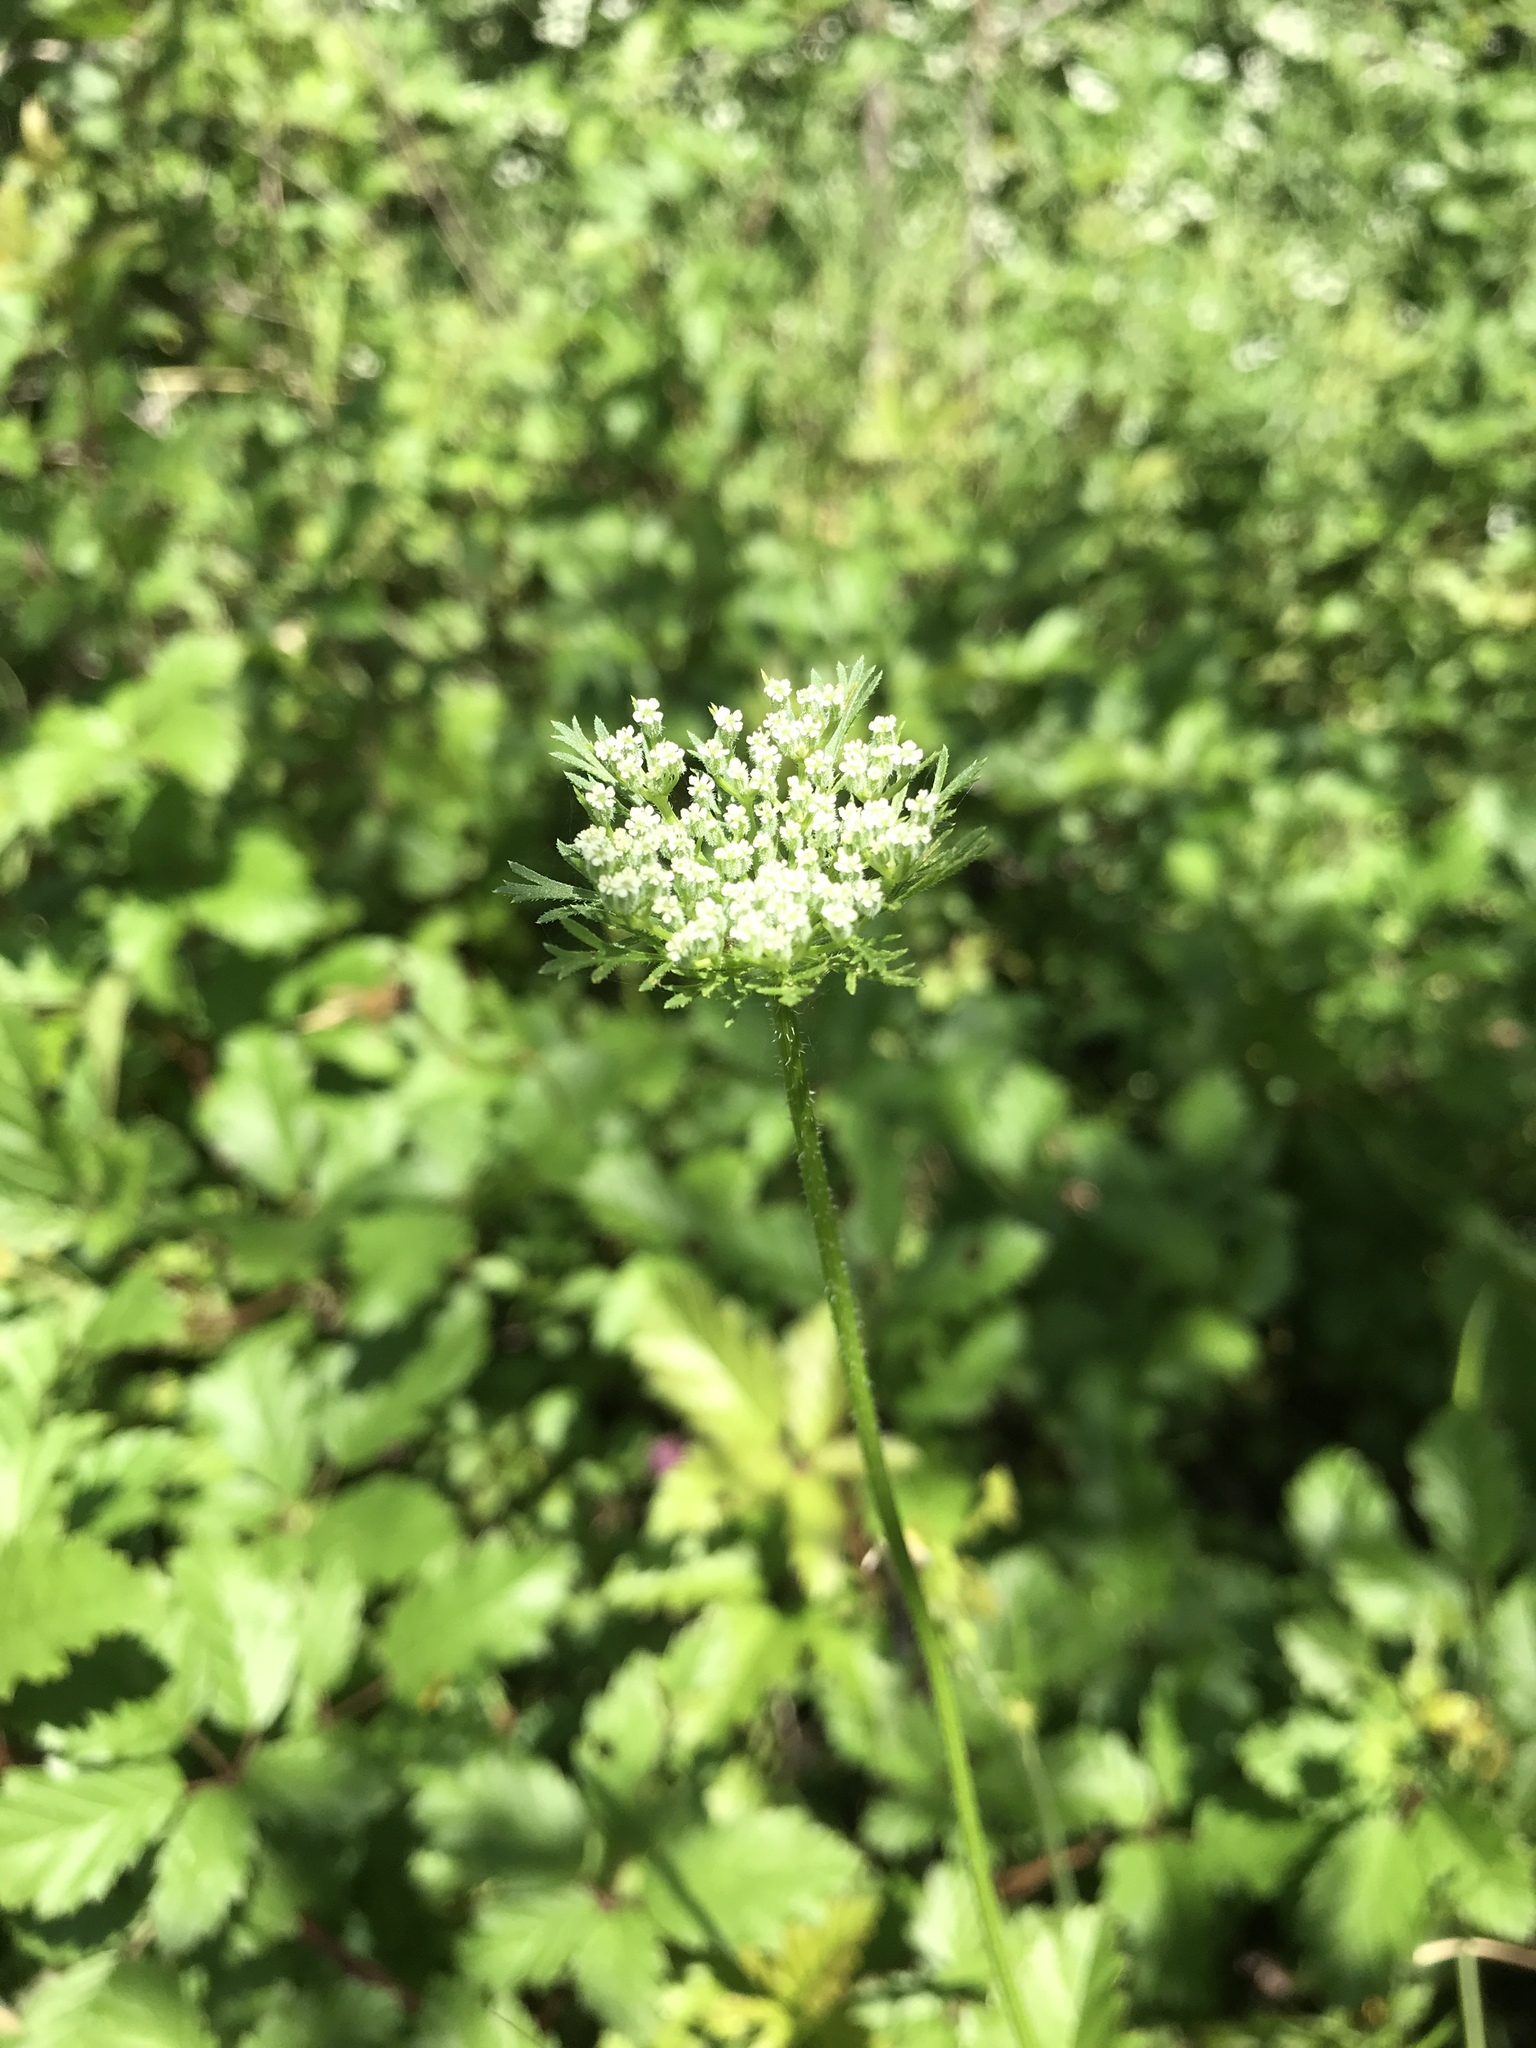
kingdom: Plantae
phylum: Tracheophyta
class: Magnoliopsida
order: Apiales
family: Apiaceae
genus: Daucus
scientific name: Daucus pusillus
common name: Southwest wild carrot
